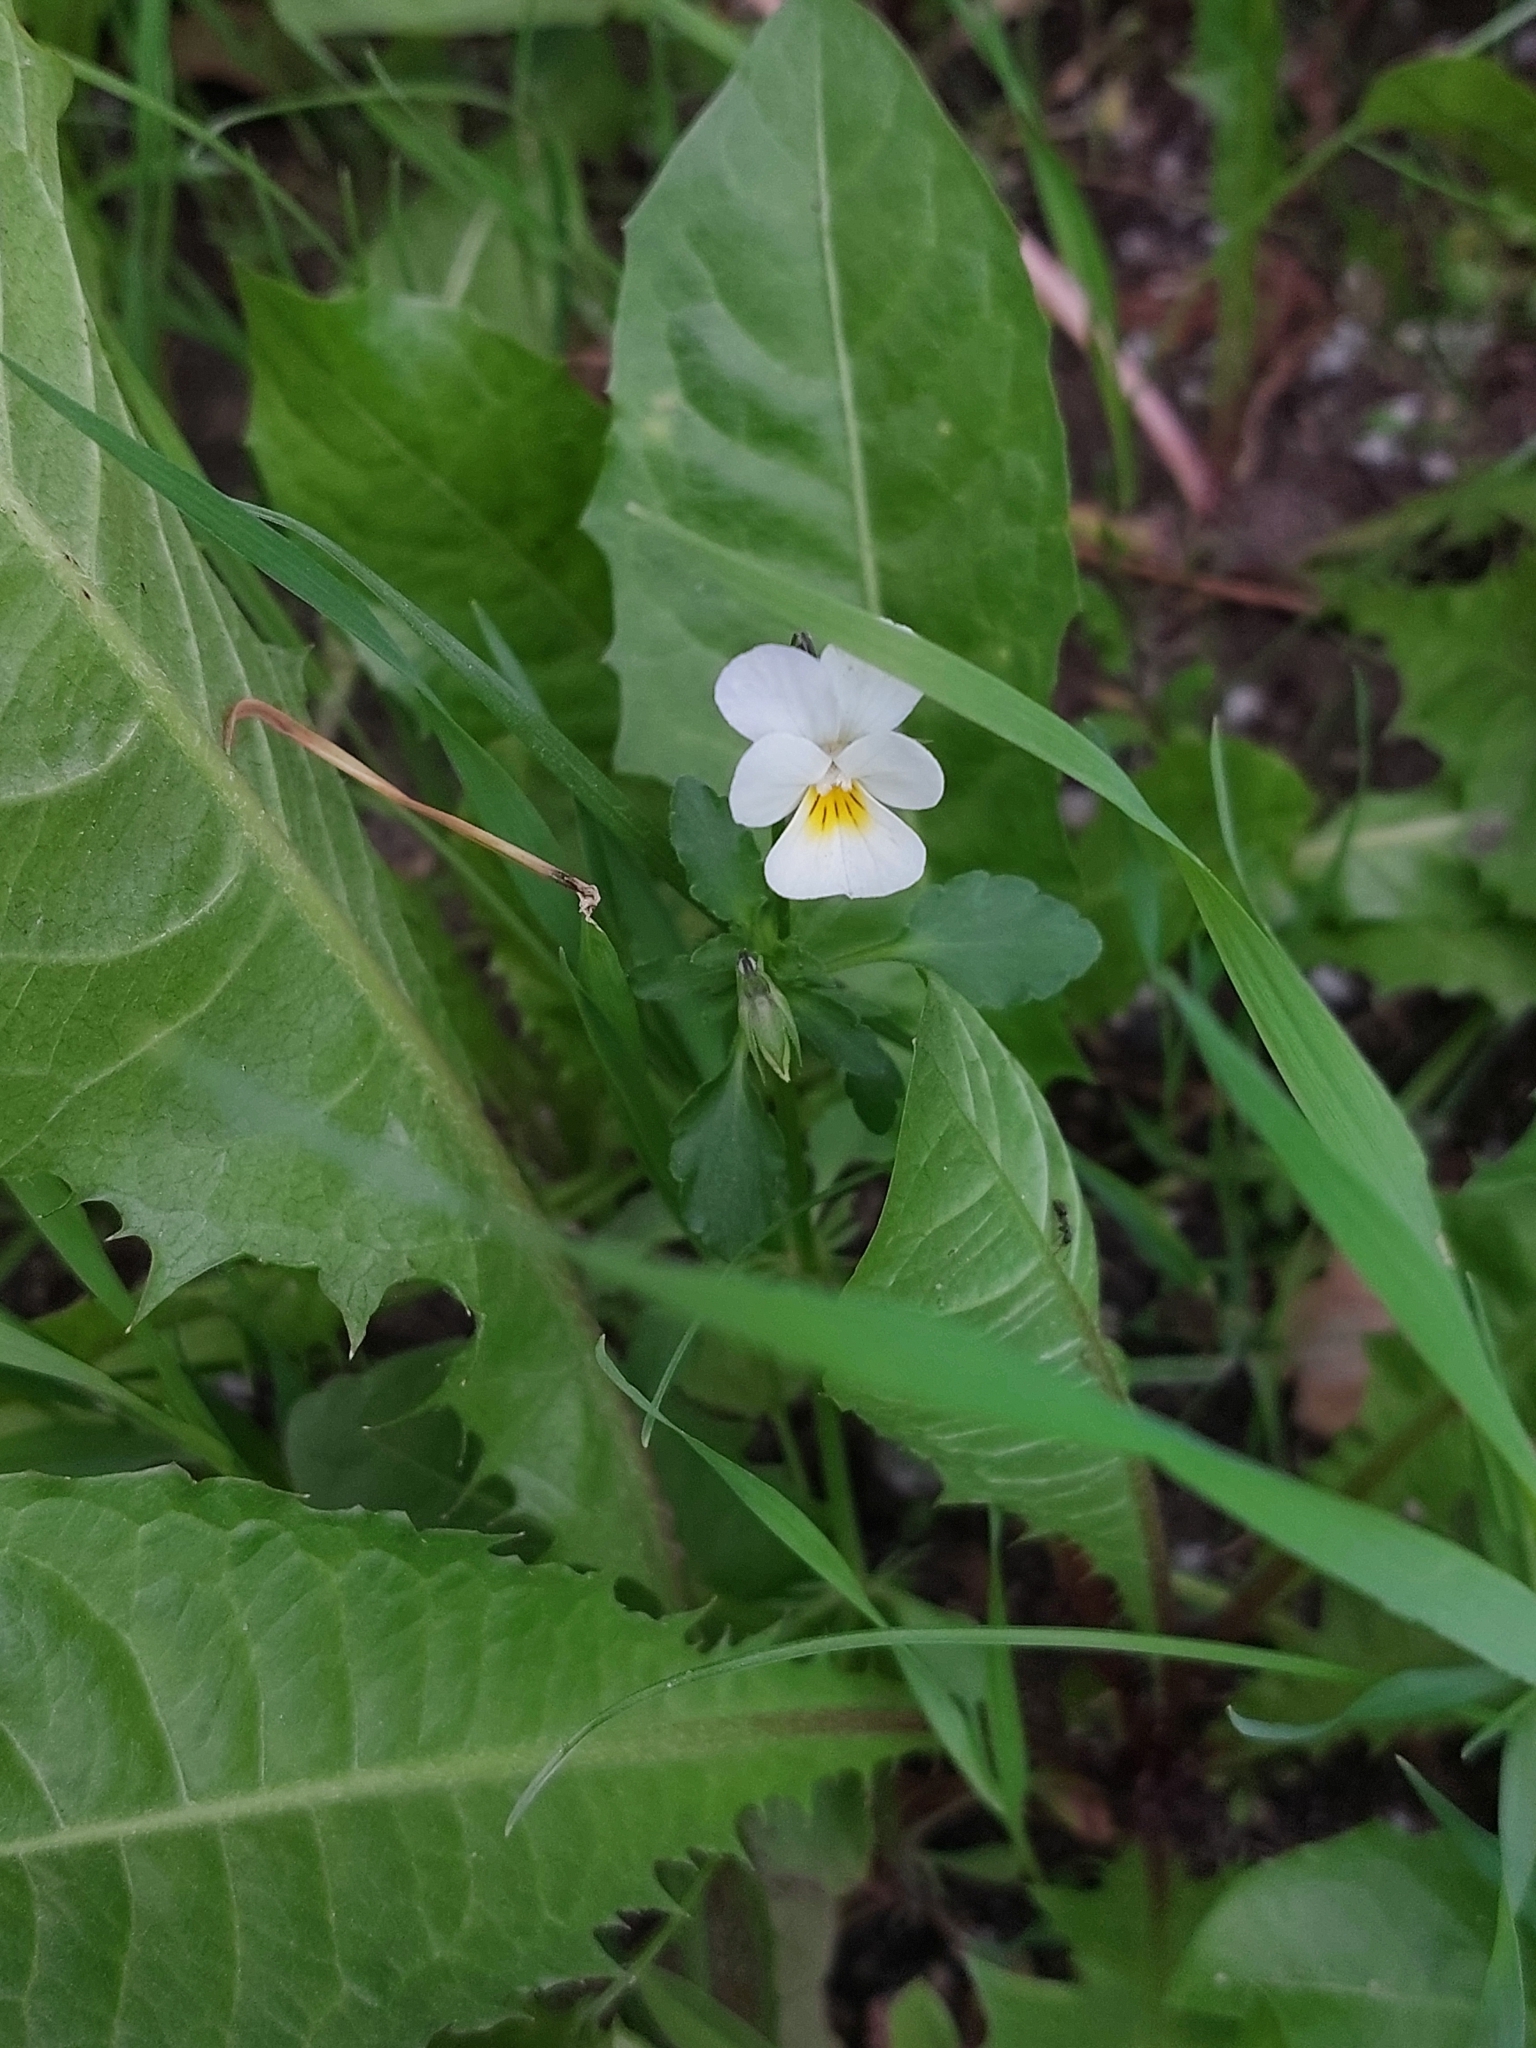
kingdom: Plantae
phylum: Tracheophyta
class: Magnoliopsida
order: Malpighiales
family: Violaceae
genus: Viola
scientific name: Viola arvensis
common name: Field pansy
